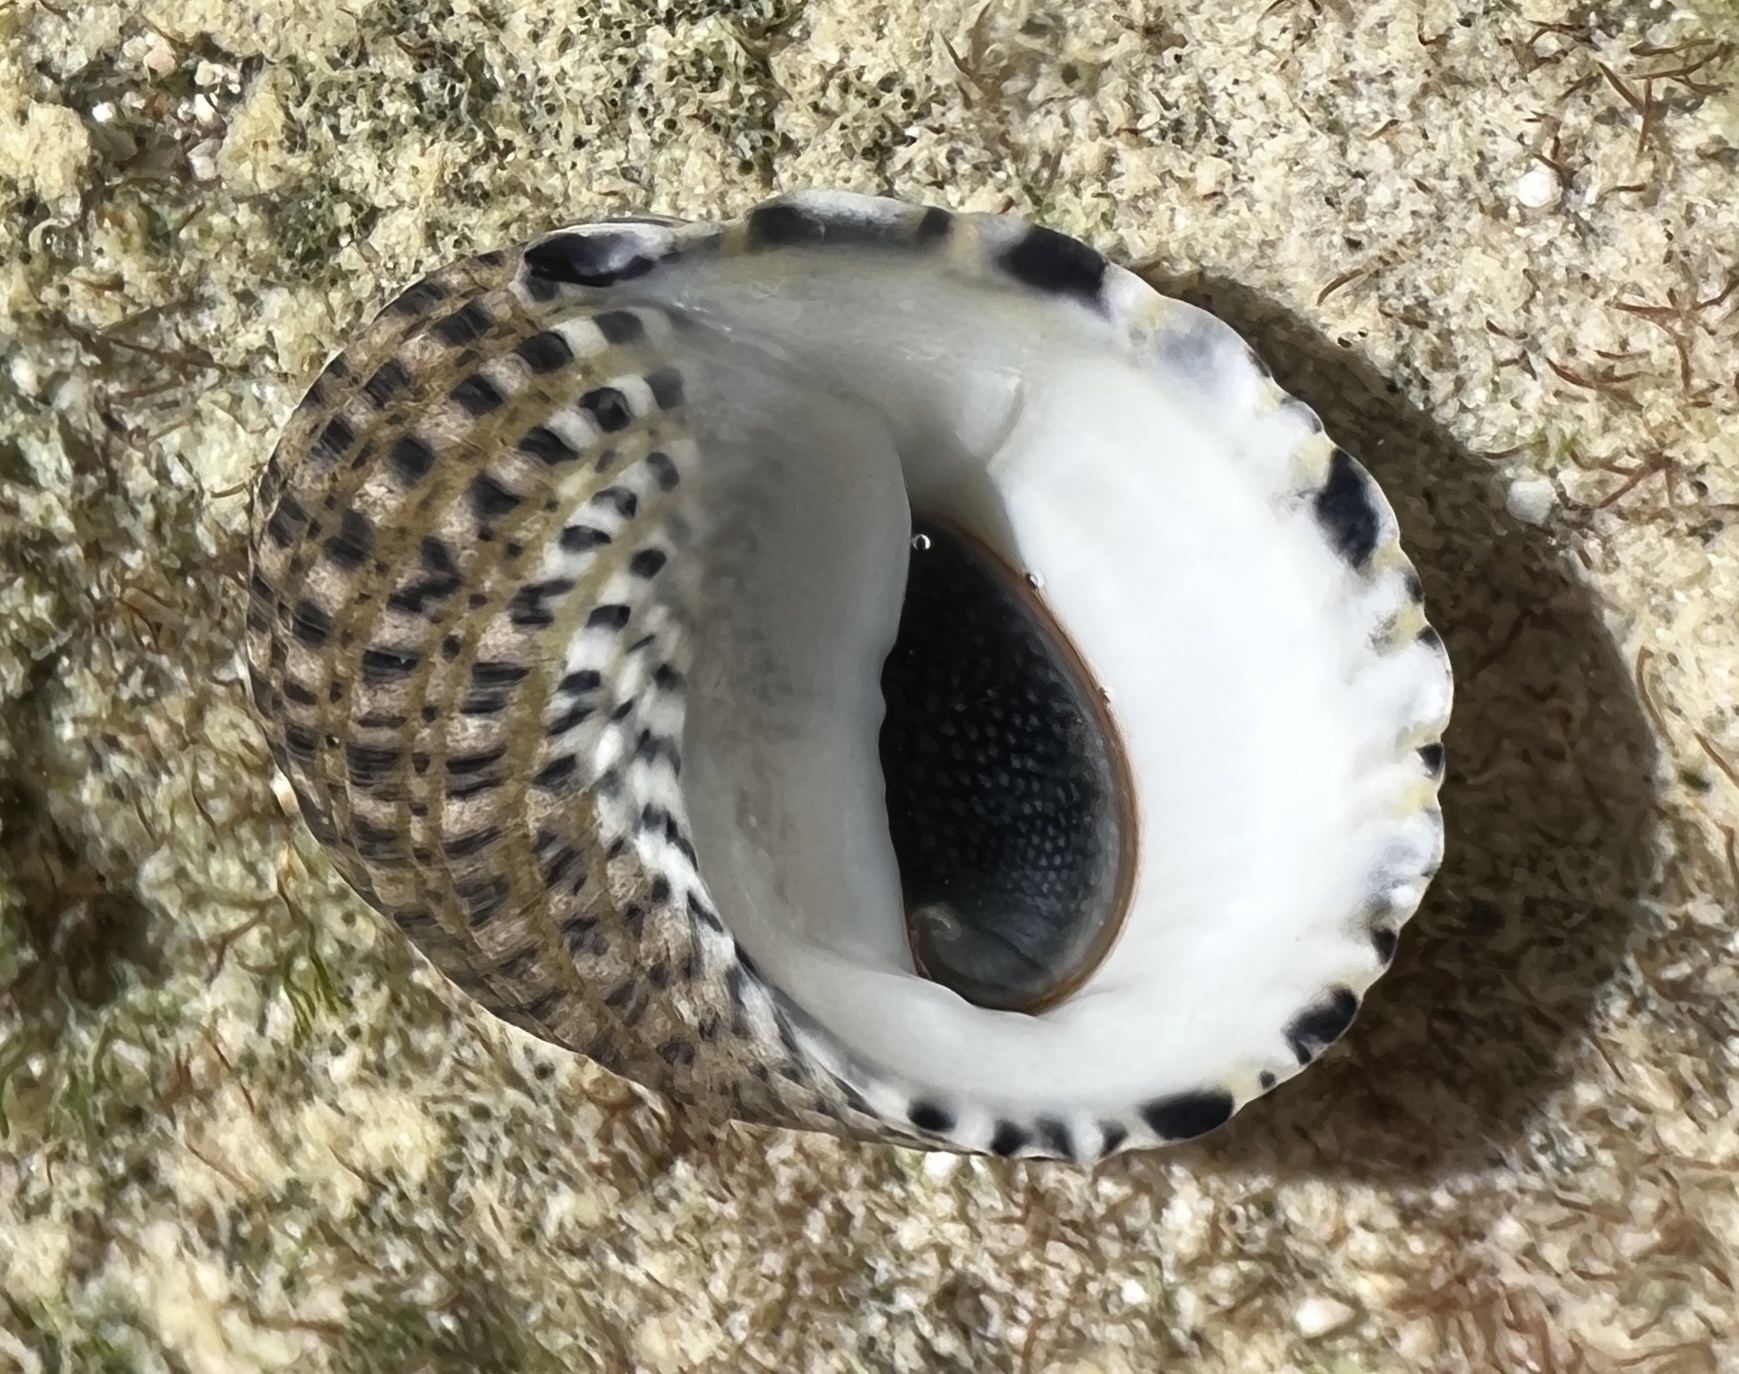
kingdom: Animalia
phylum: Mollusca
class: Gastropoda
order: Cycloneritida
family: Neritidae
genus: Nerita
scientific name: Nerita tessellata
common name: Checkered nerite
